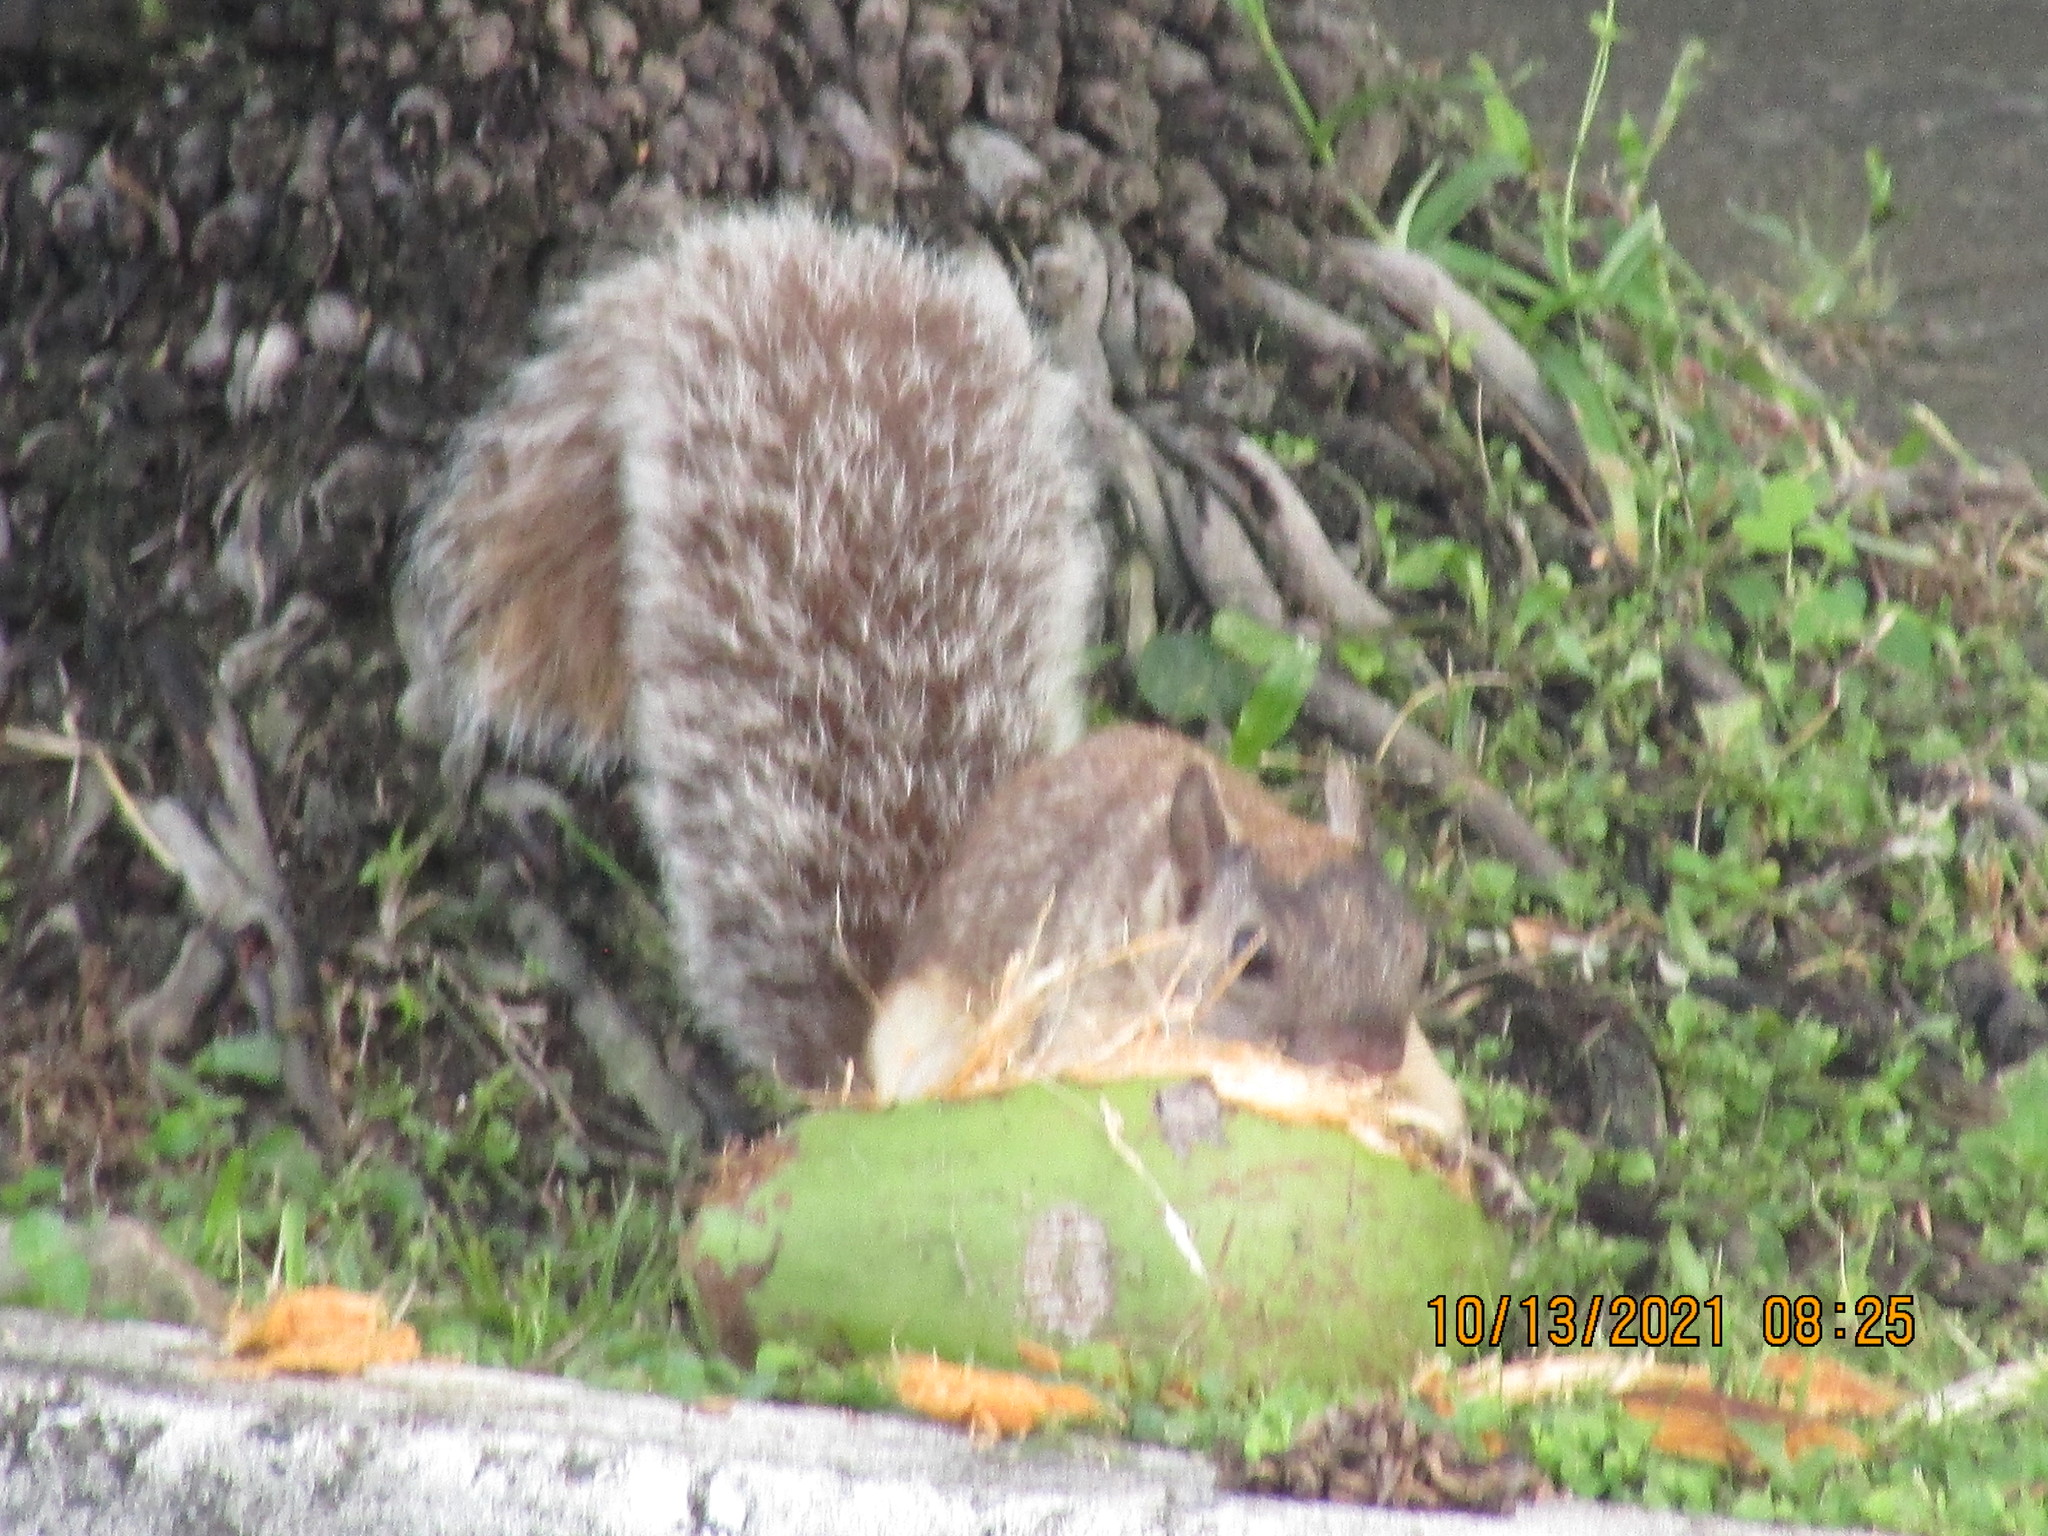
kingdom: Animalia
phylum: Chordata
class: Mammalia
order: Rodentia
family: Sciuridae
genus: Sciurus
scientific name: Sciurus variegatoides
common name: Variegated squirrel
